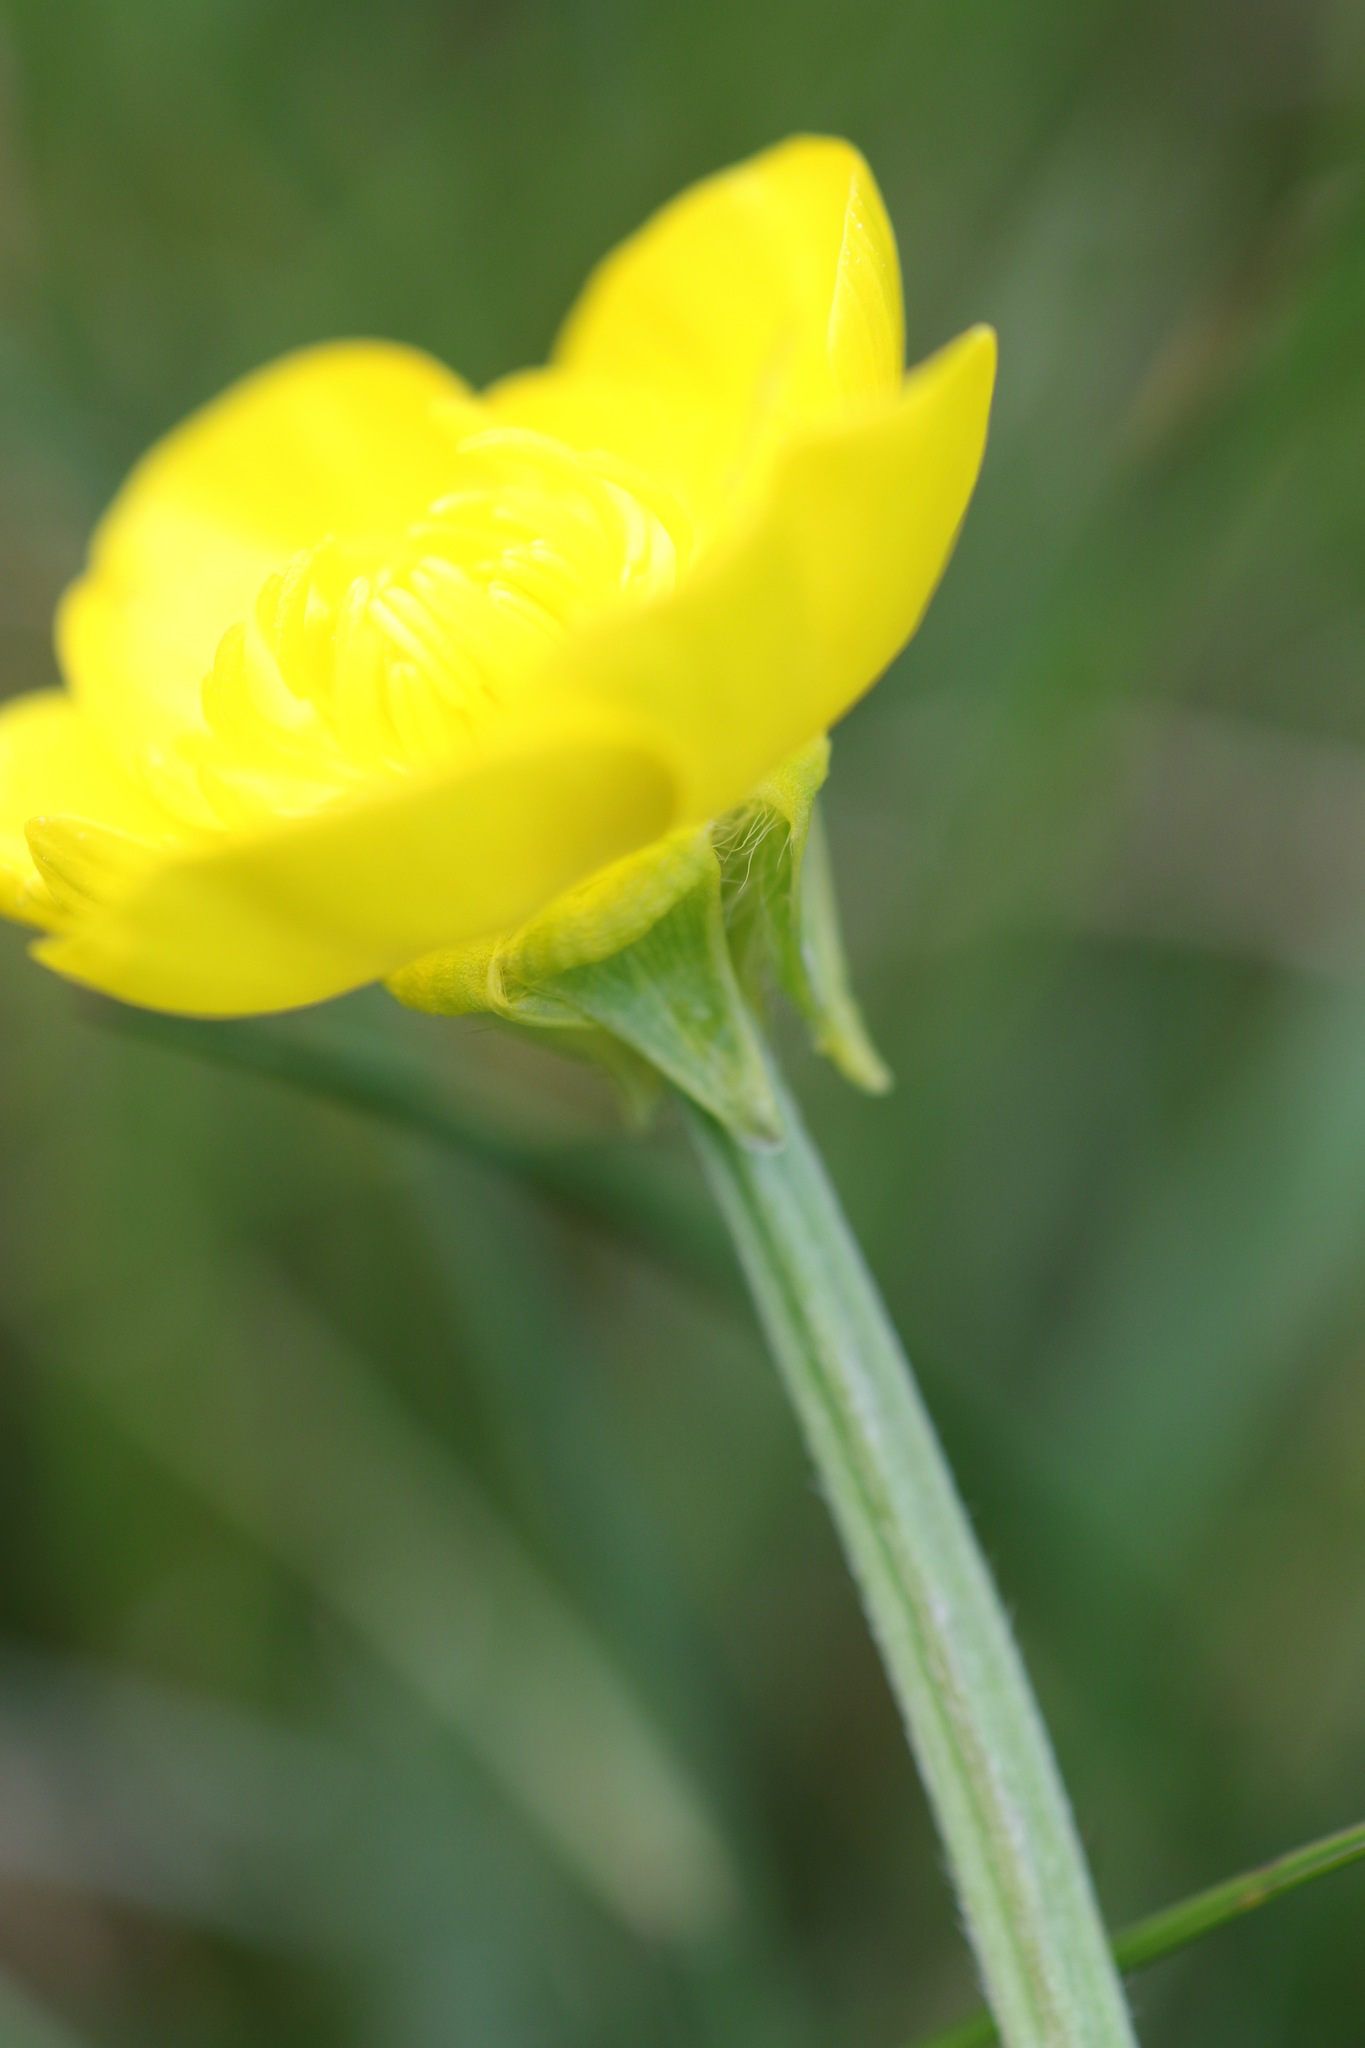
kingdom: Plantae
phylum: Tracheophyta
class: Magnoliopsida
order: Ranunculales
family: Ranunculaceae
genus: Ranunculus
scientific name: Ranunculus bulbosus
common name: Bulbous buttercup
